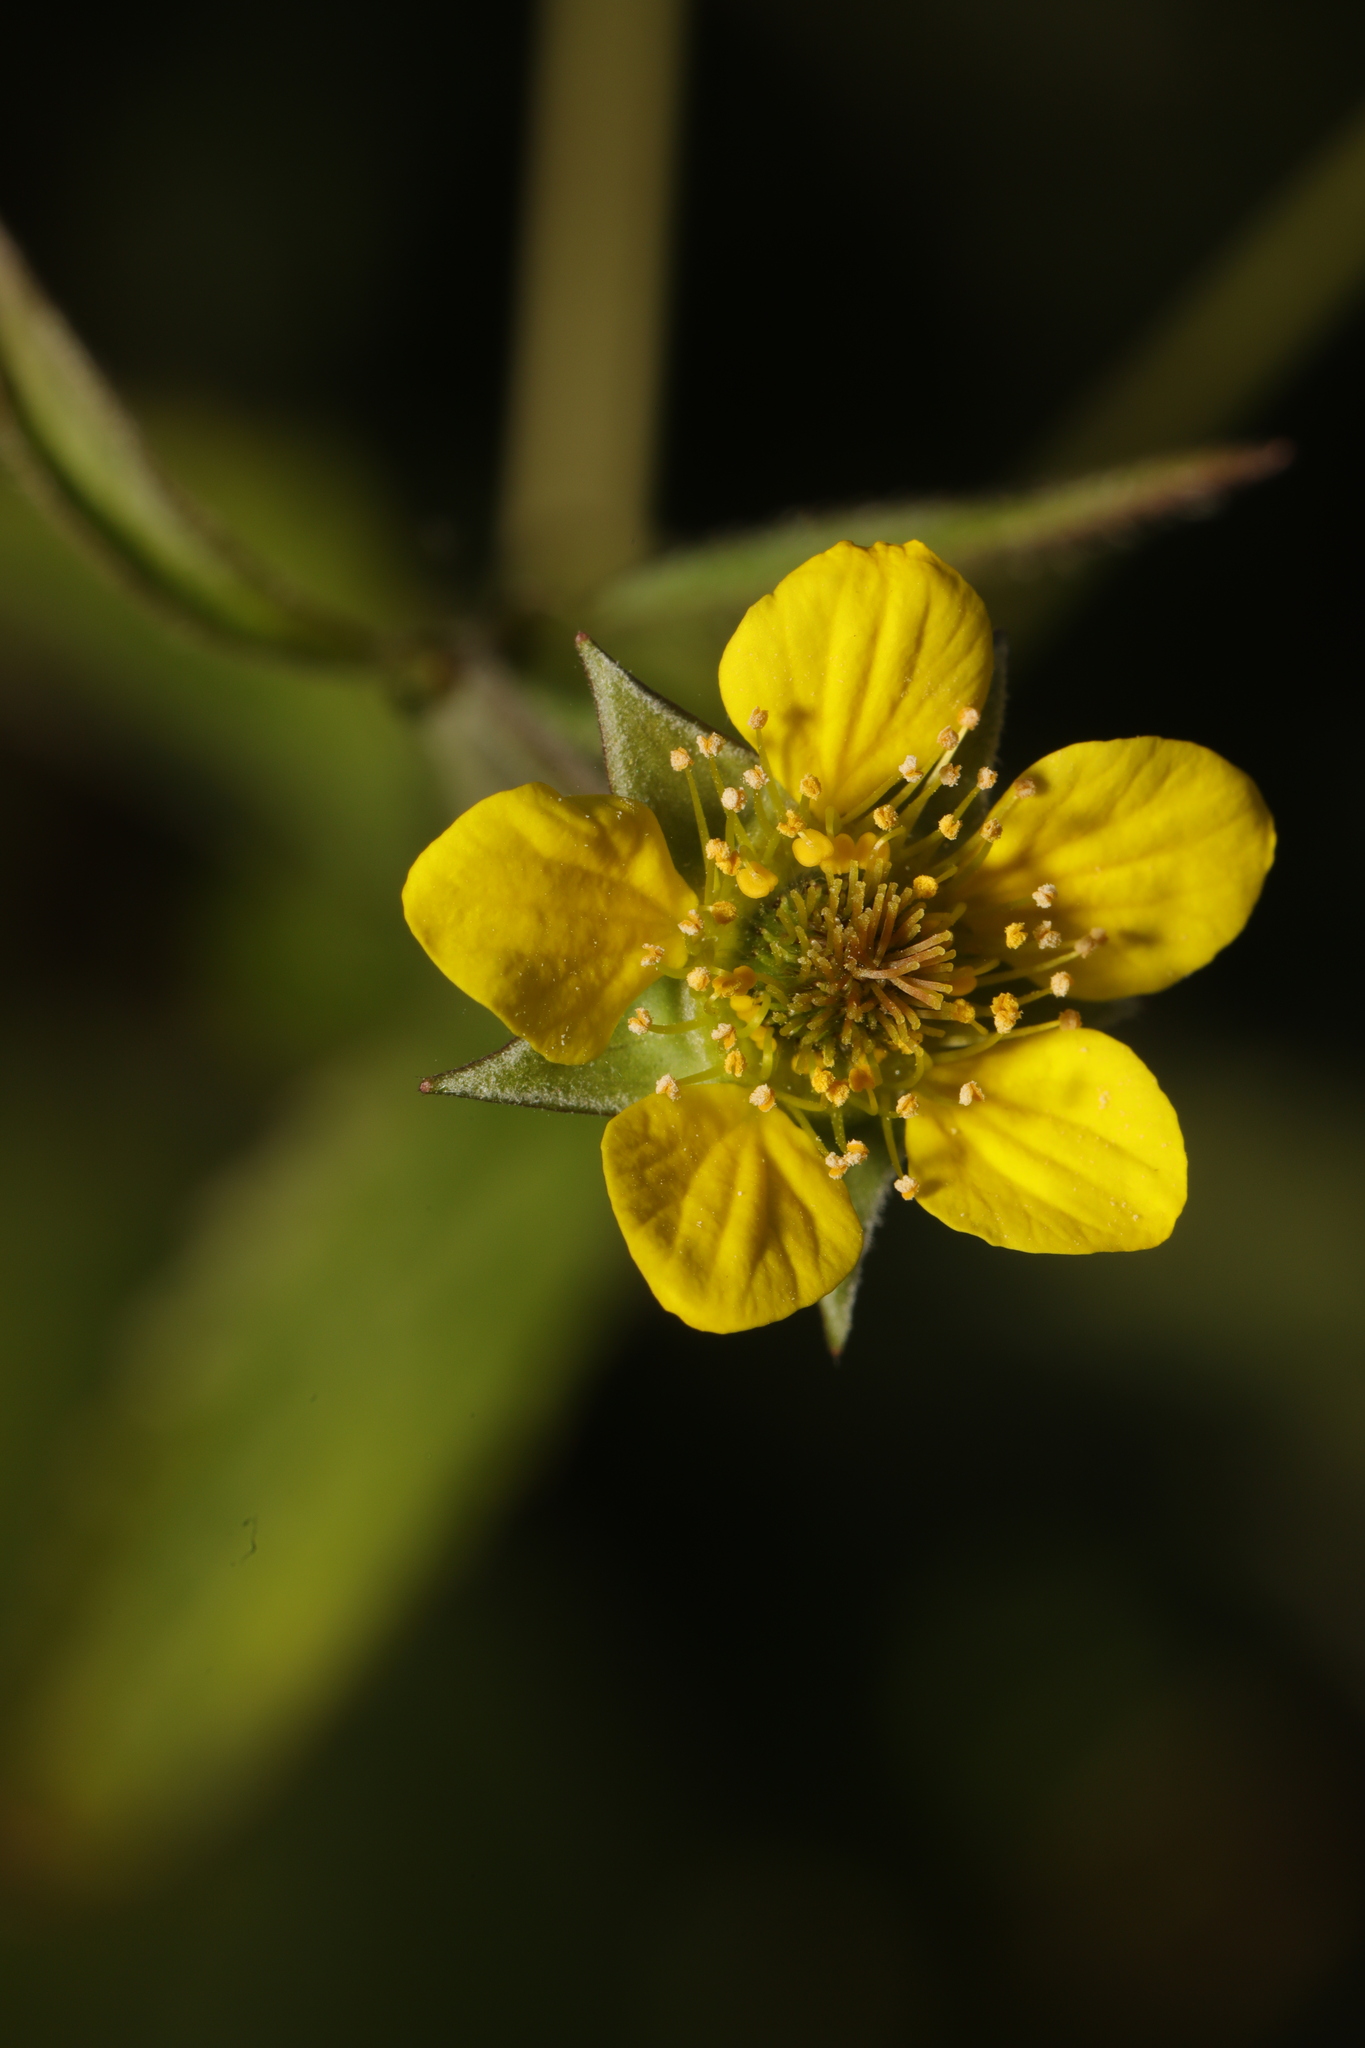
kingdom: Plantae
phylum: Tracheophyta
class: Magnoliopsida
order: Rosales
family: Rosaceae
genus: Geum
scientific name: Geum urbanum
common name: Wood avens
